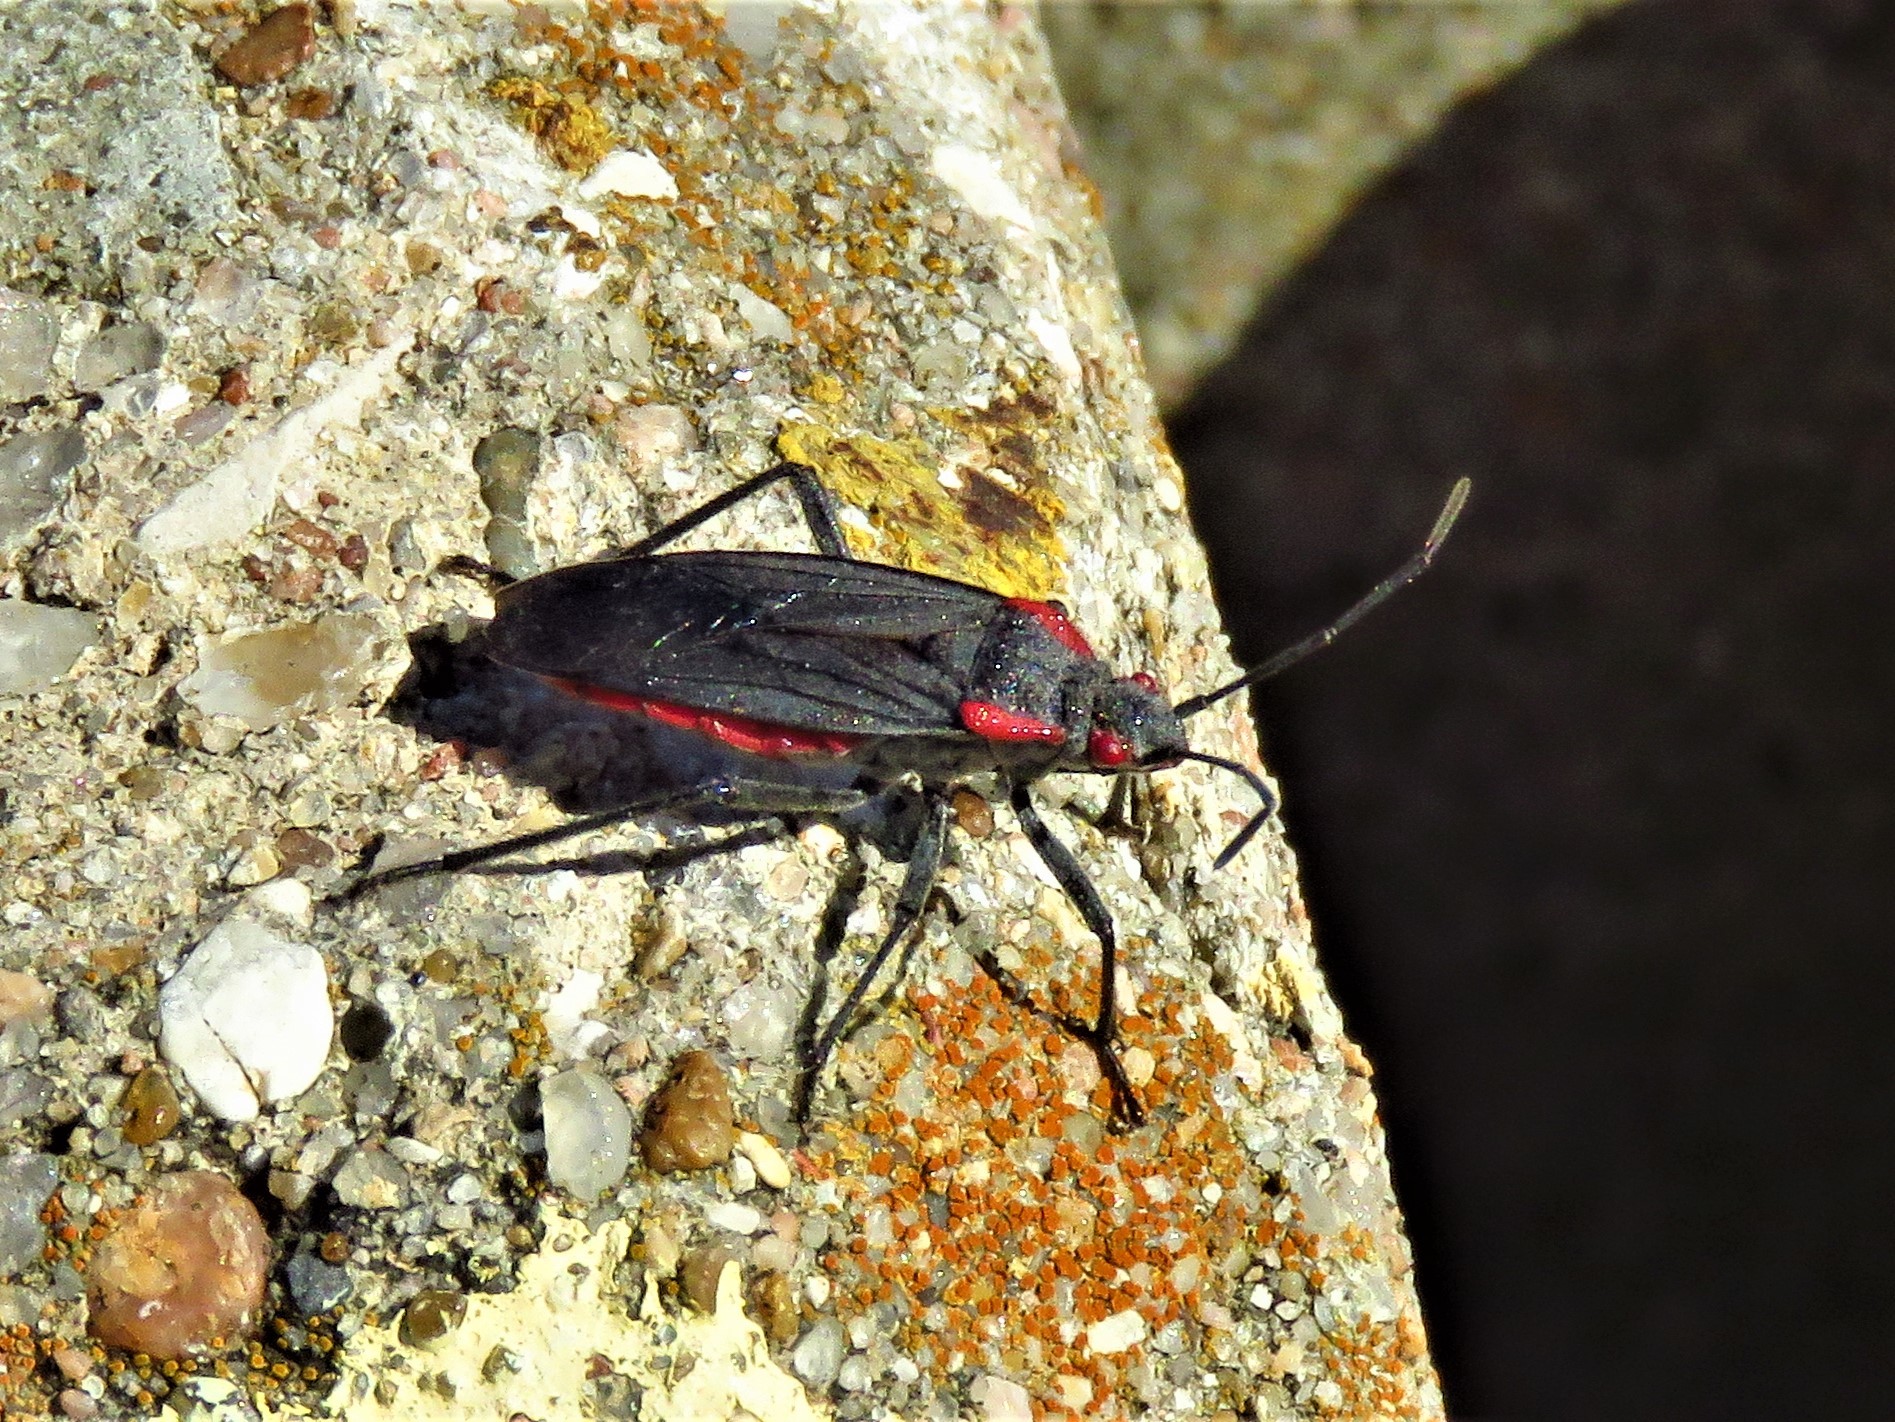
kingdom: Animalia
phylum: Arthropoda
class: Insecta
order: Hemiptera
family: Rhopalidae
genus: Jadera
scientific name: Jadera haematoloma
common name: Red-shouldered bug
